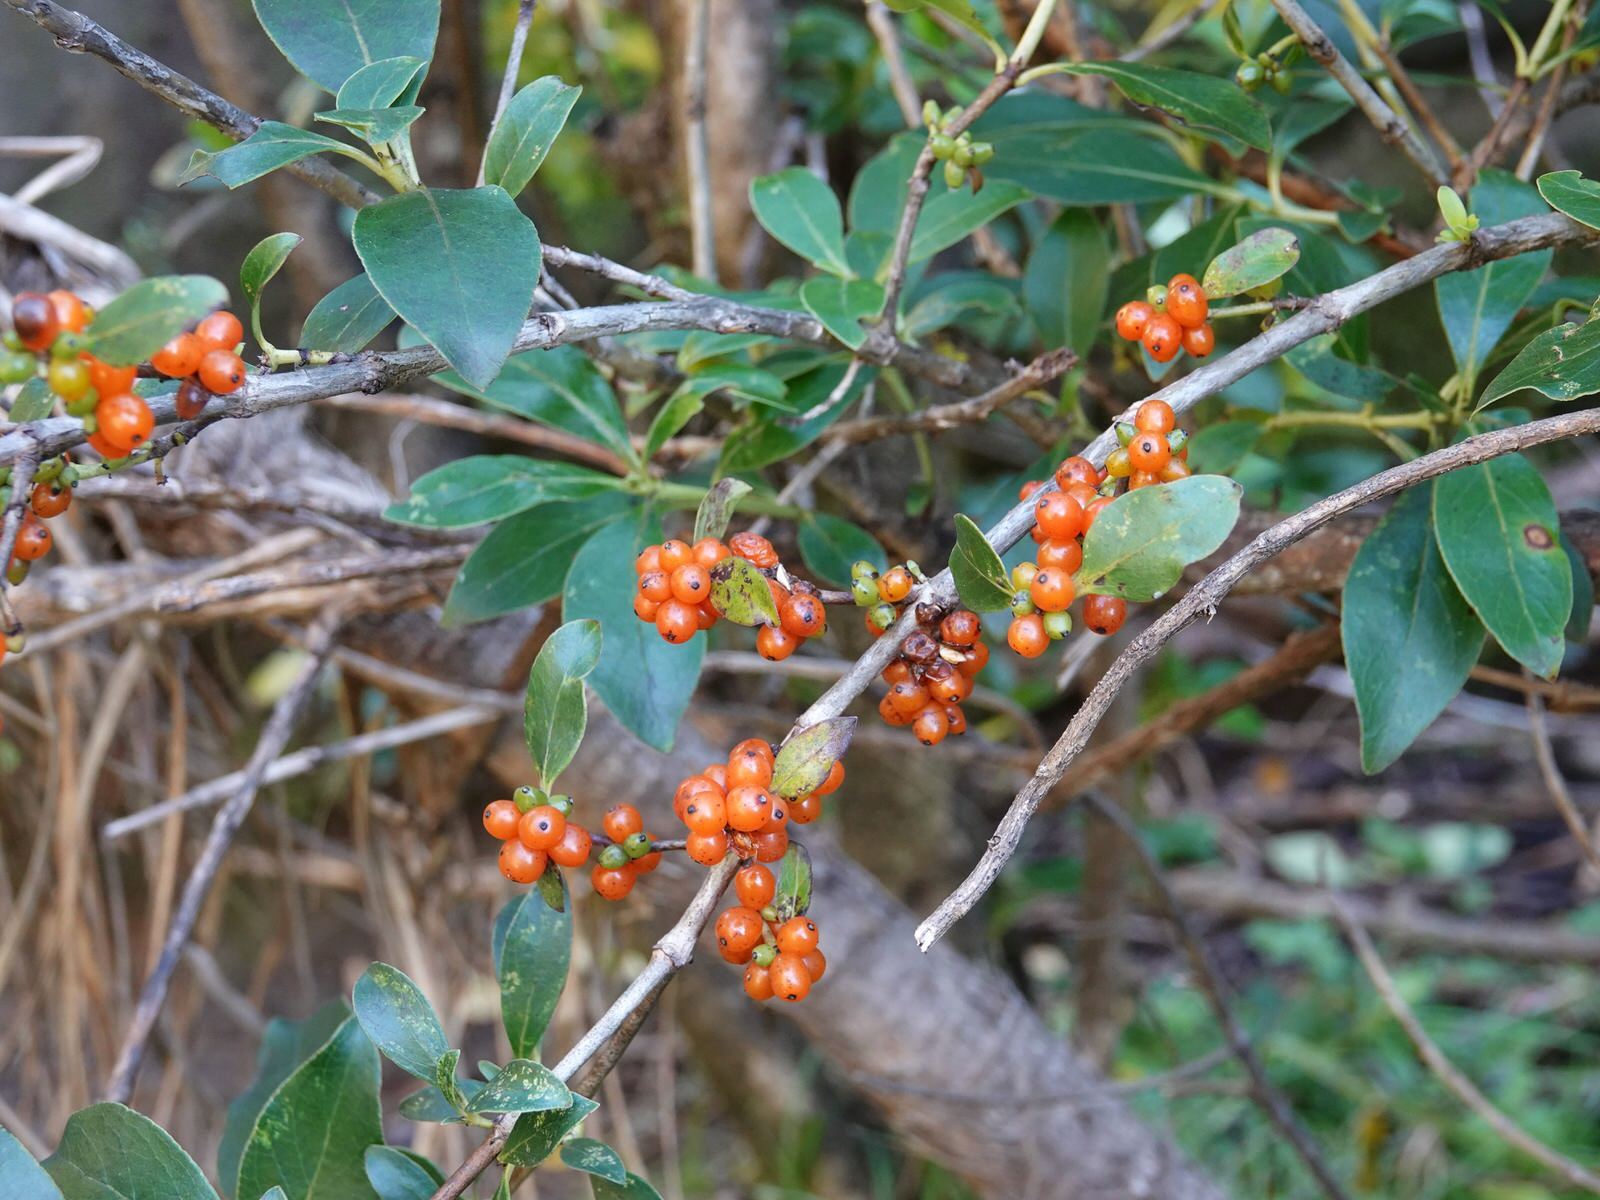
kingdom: Plantae
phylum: Tracheophyta
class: Magnoliopsida
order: Gentianales
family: Rubiaceae
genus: Coprosma
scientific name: Coprosma robusta
